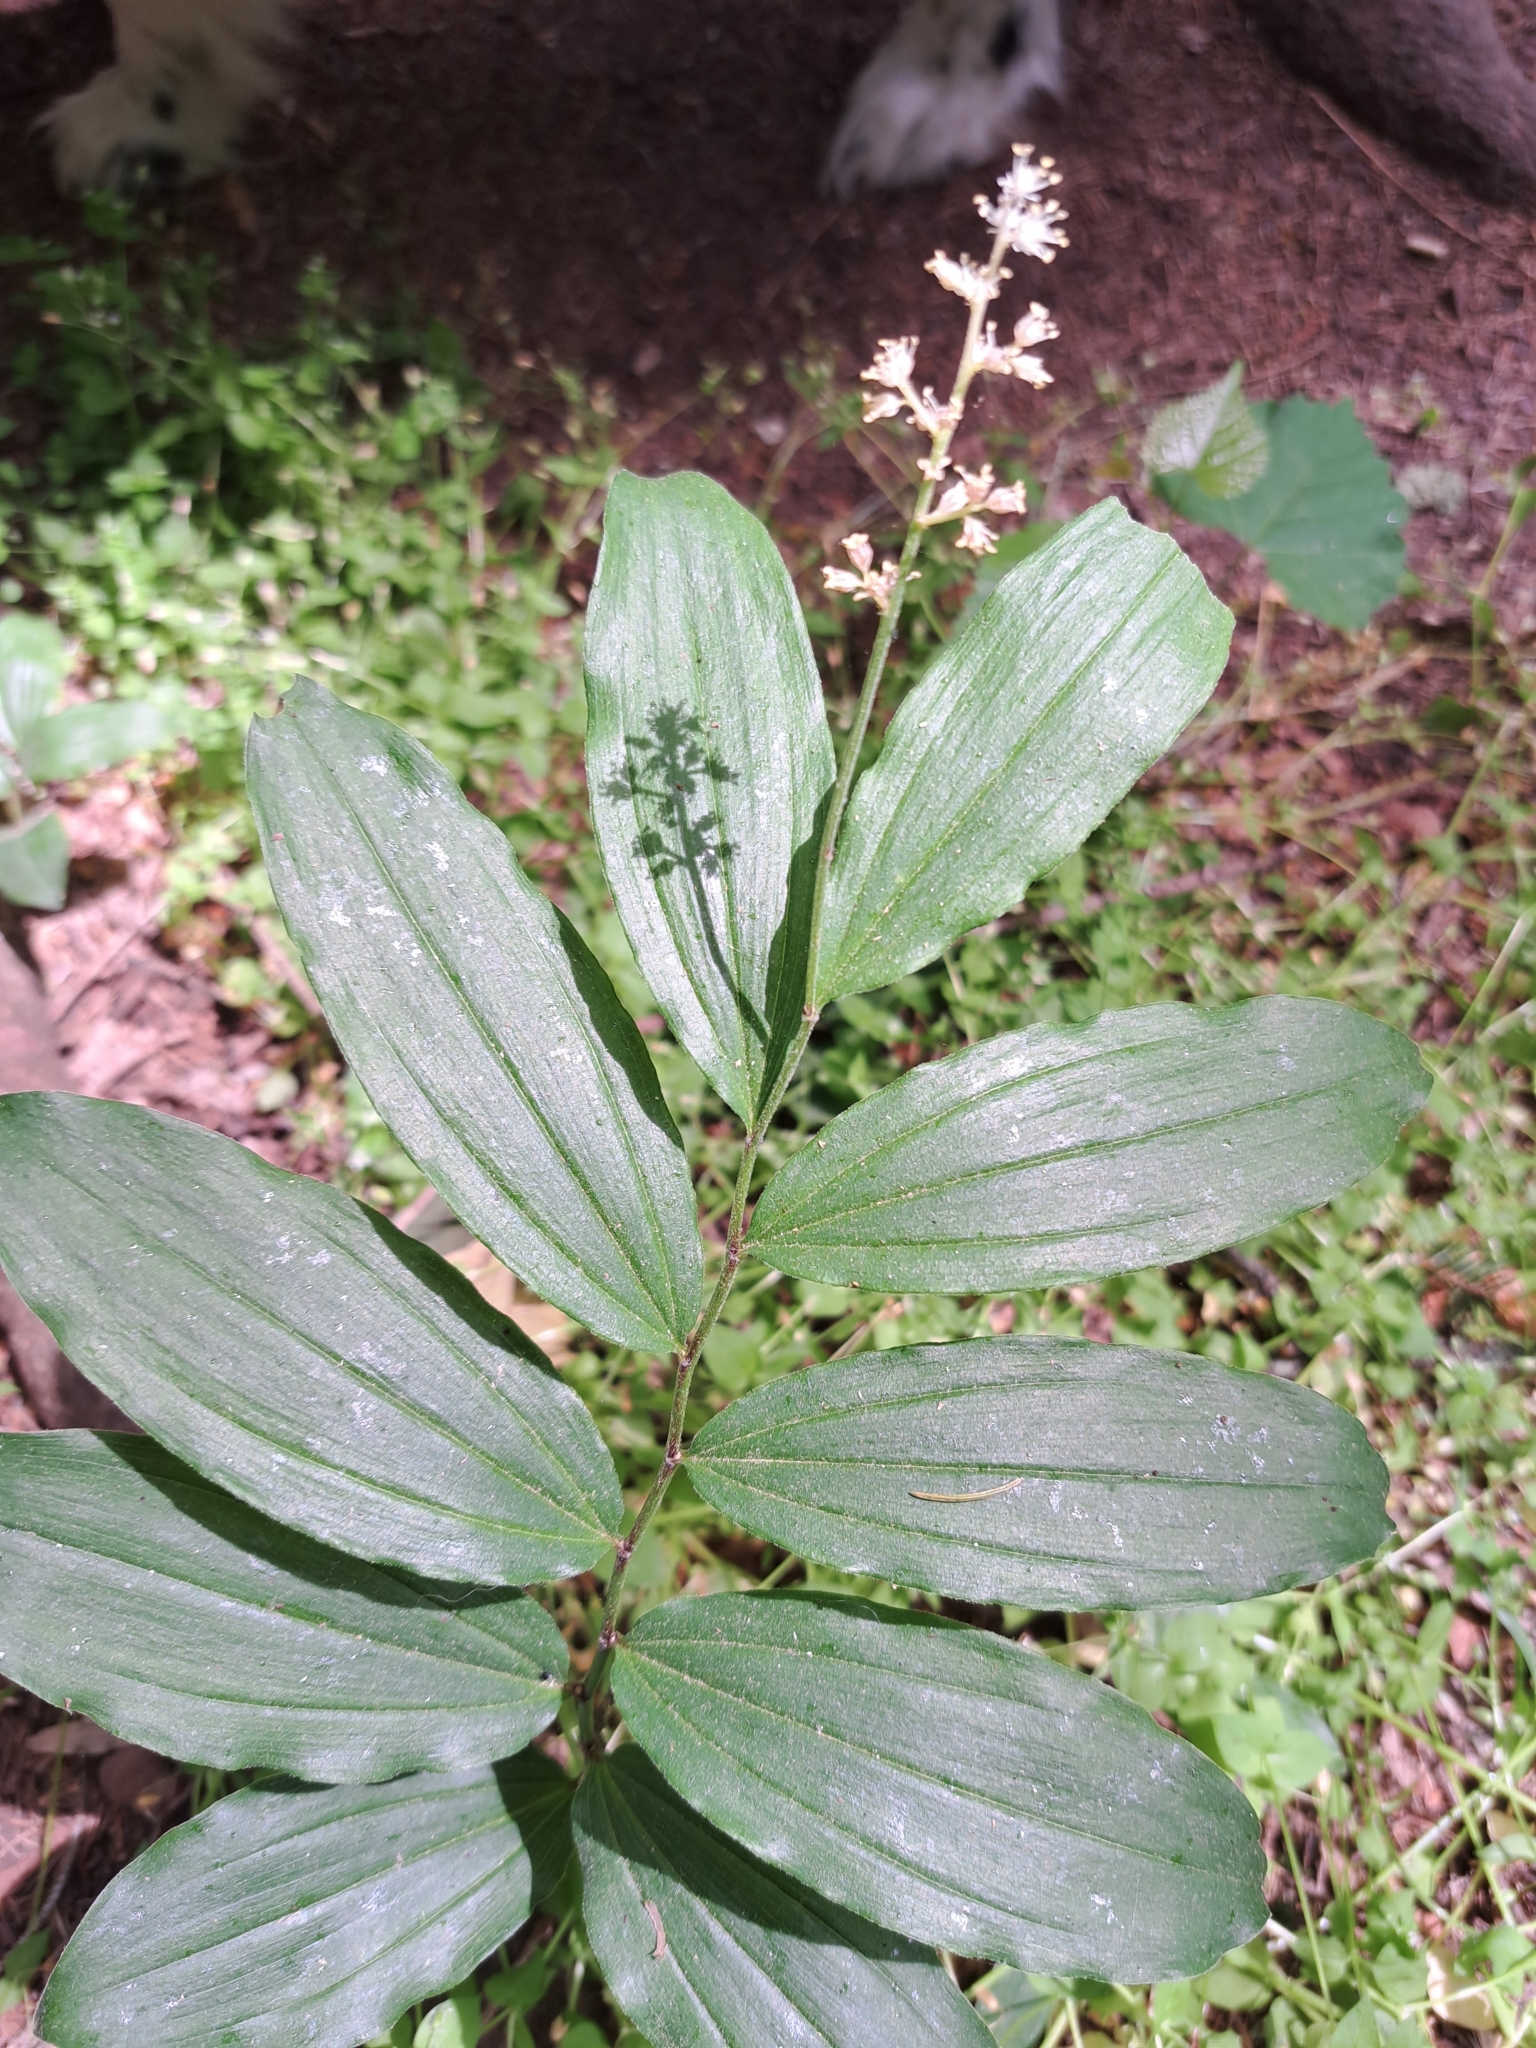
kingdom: Plantae
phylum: Tracheophyta
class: Liliopsida
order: Asparagales
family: Asparagaceae
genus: Maianthemum
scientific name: Maianthemum racemosum
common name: False spikenard
